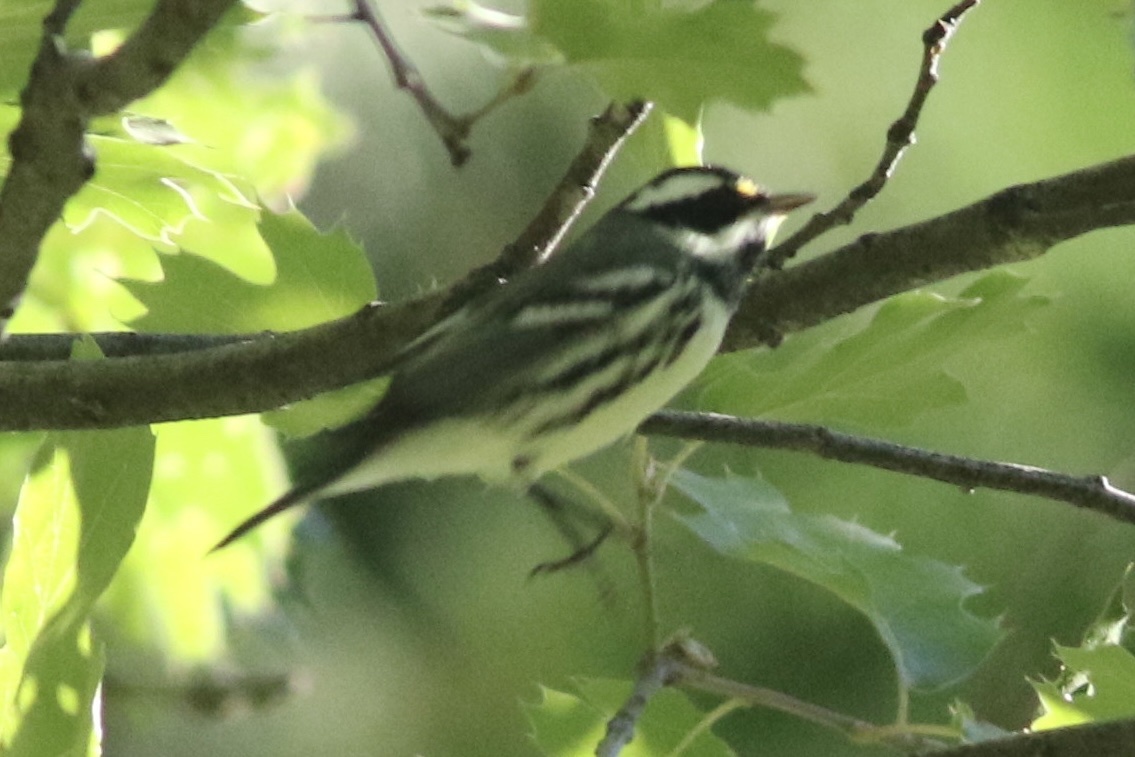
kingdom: Animalia
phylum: Chordata
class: Aves
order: Passeriformes
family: Parulidae
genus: Setophaga
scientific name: Setophaga nigrescens
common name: Black-throated gray warbler
